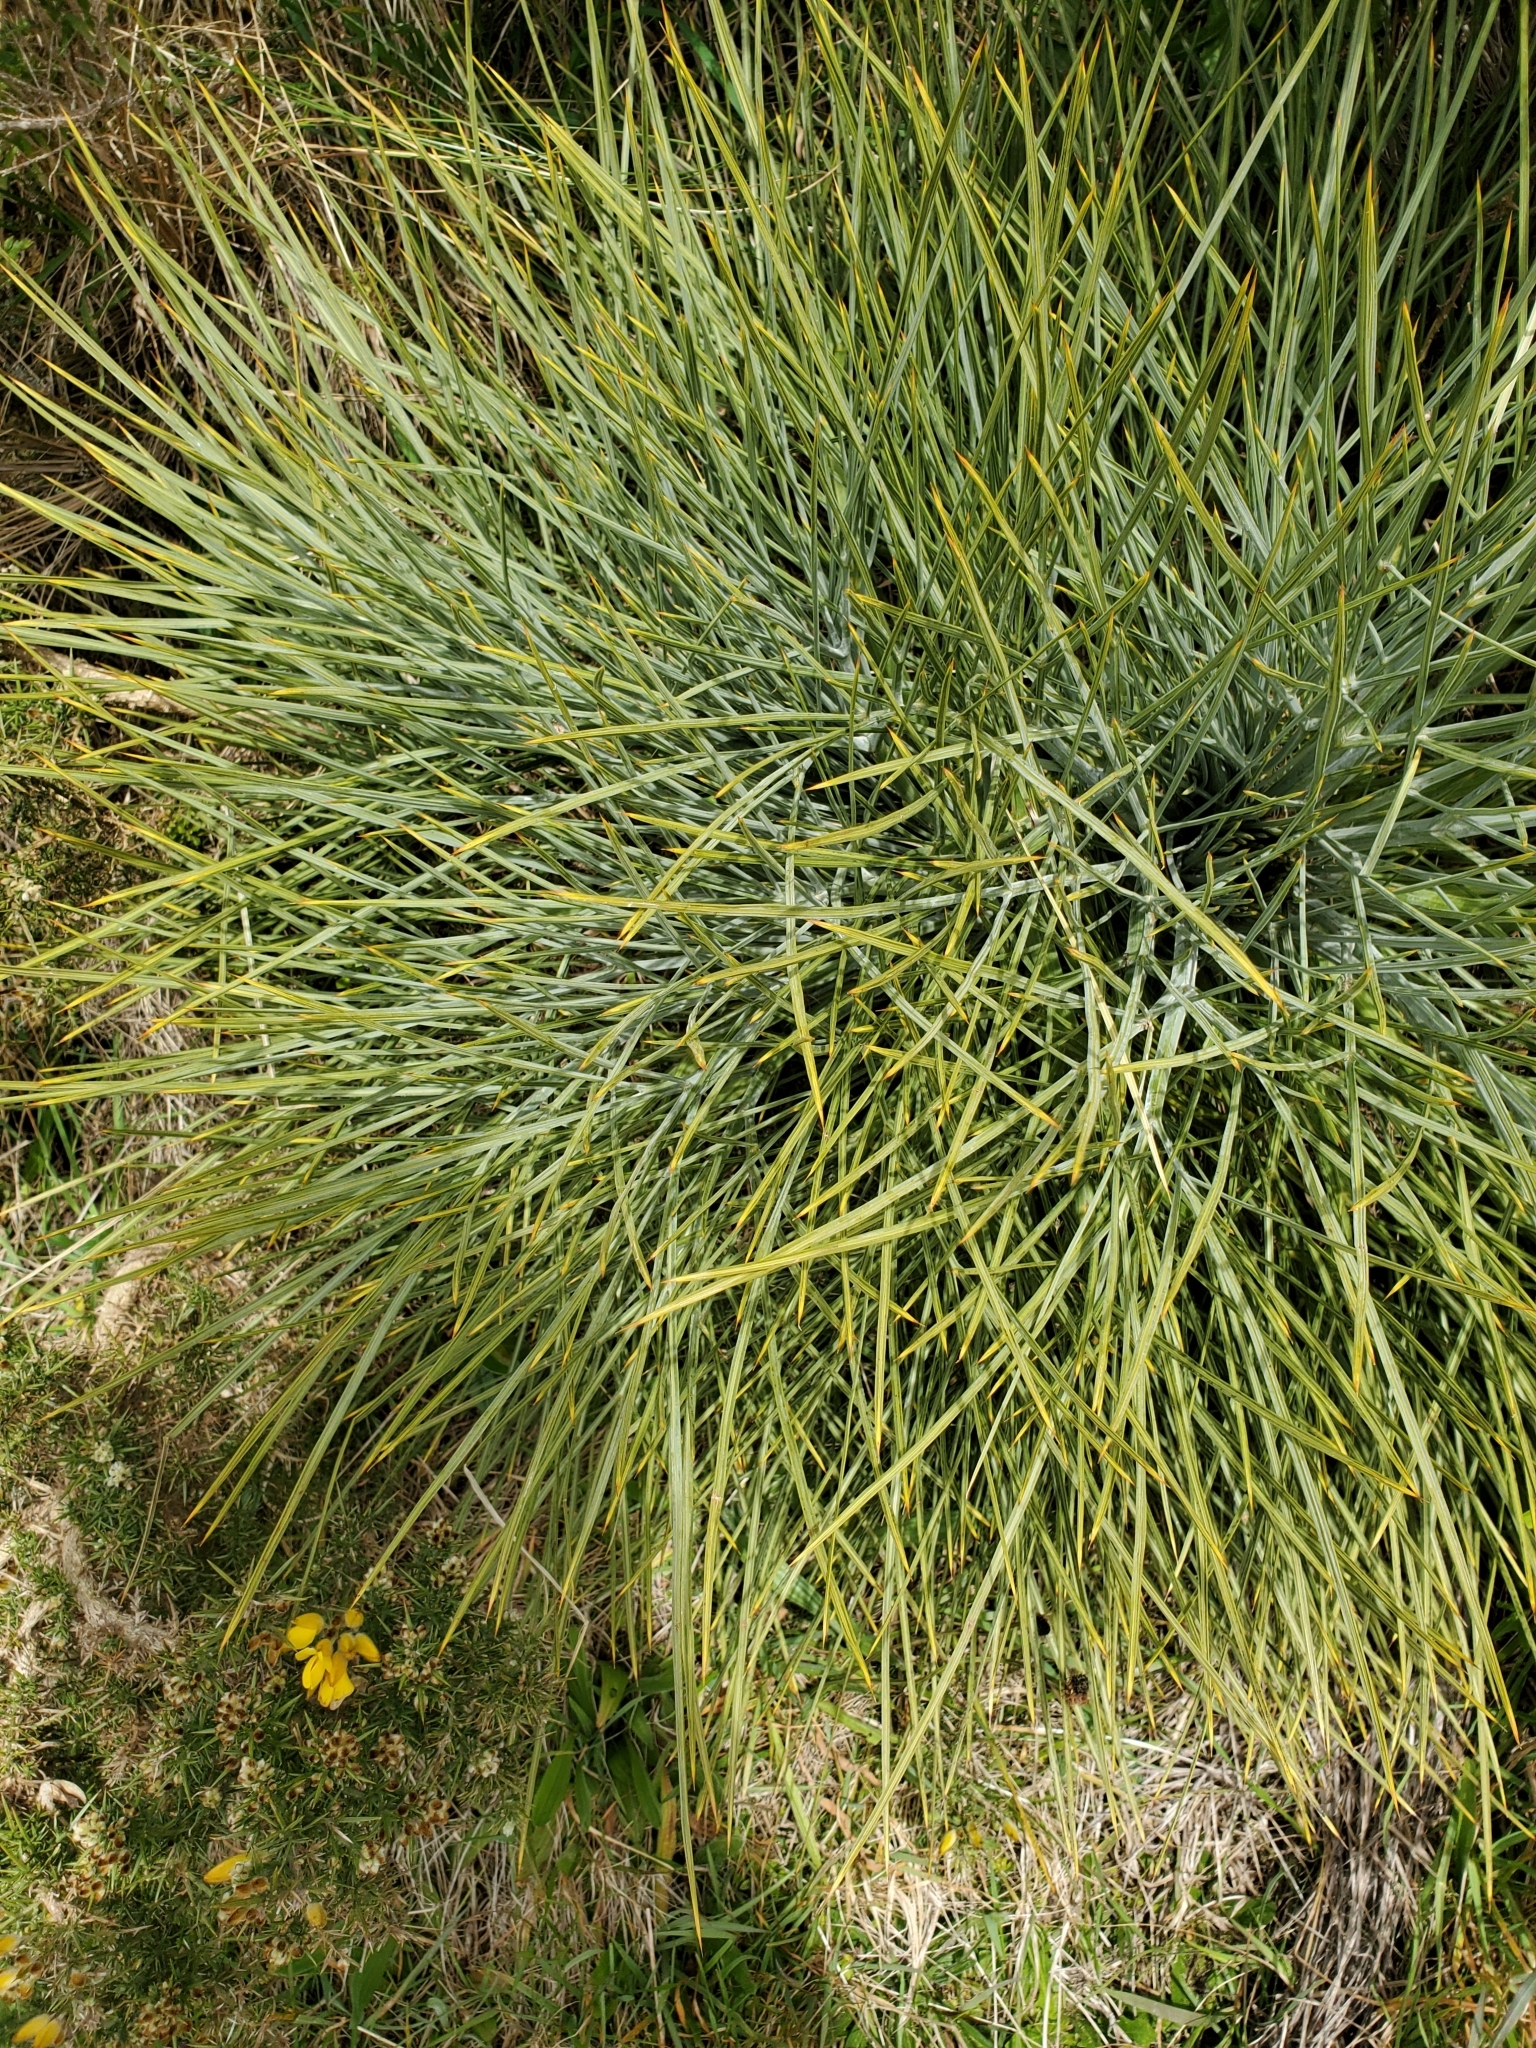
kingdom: Plantae
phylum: Tracheophyta
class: Magnoliopsida
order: Apiales
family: Apiaceae
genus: Aciphylla
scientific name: Aciphylla squarrosa
